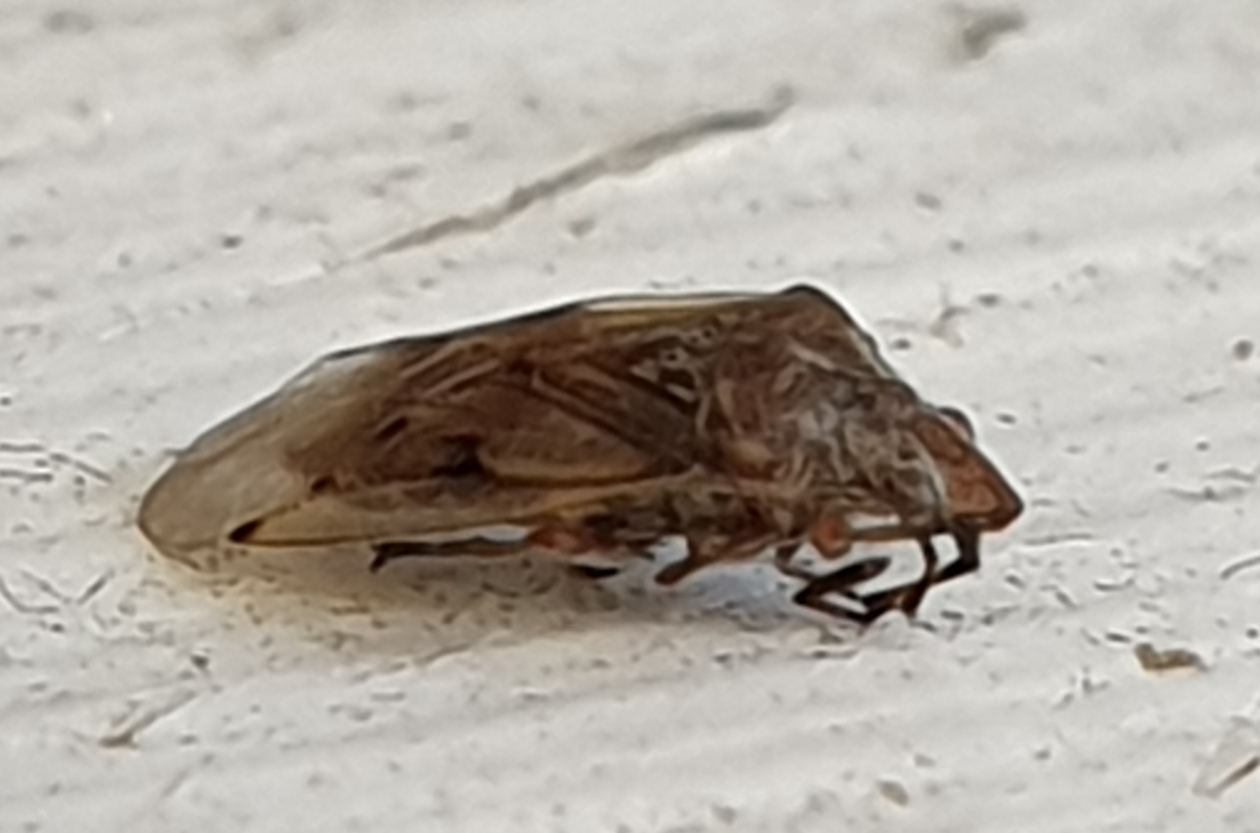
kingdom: Animalia
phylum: Arthropoda
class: Insecta
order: Hemiptera
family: Lygaeidae
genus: Kleidocerys
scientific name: Kleidocerys resedae
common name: Birch catkin bug
